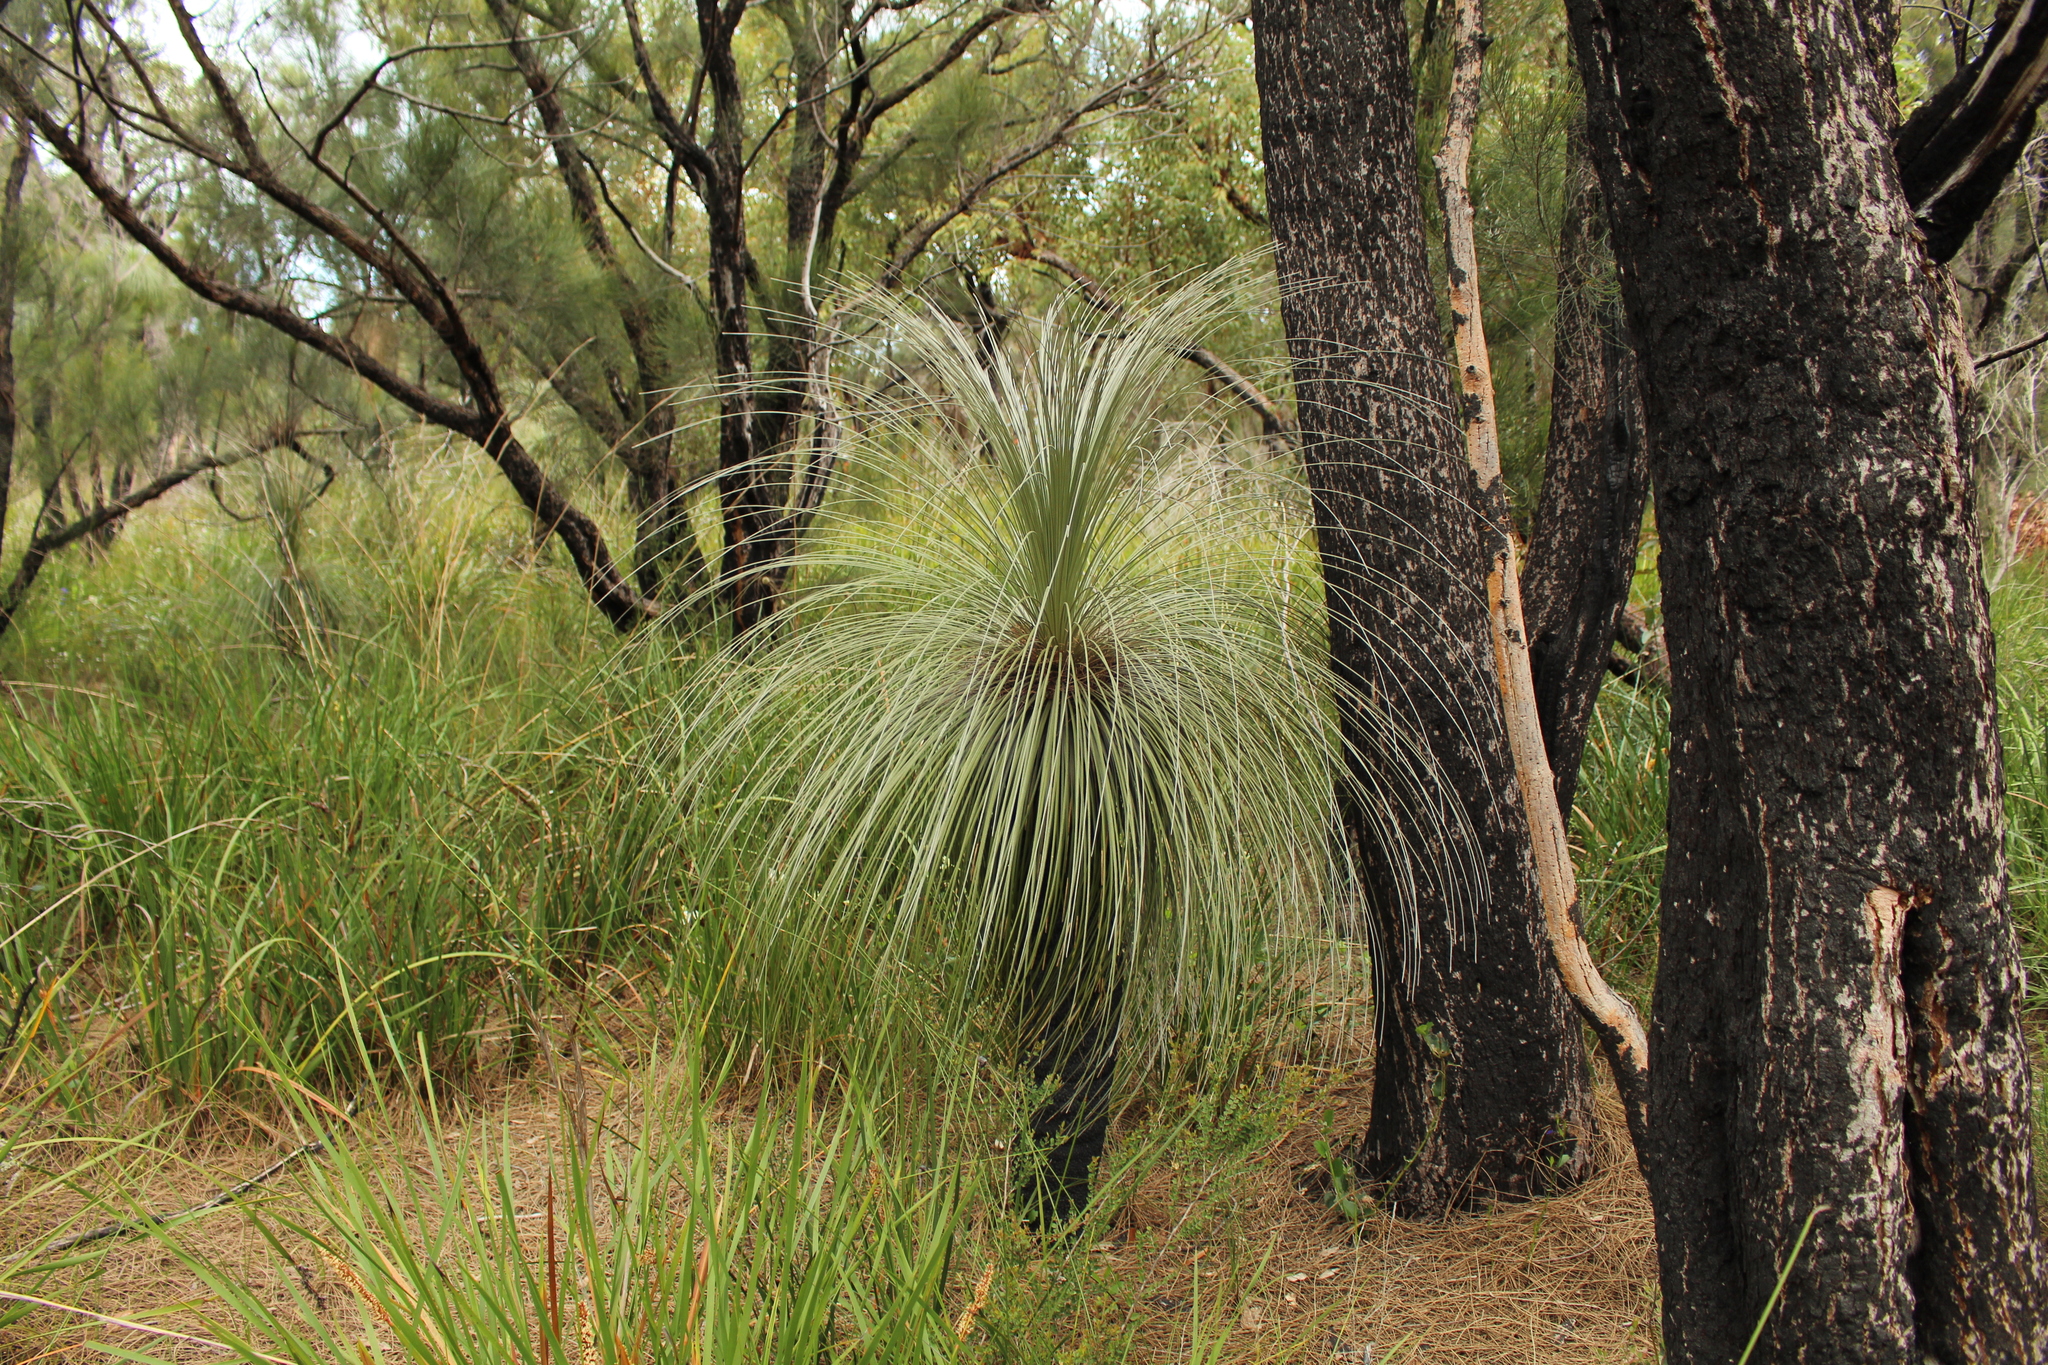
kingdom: Plantae
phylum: Tracheophyta
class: Liliopsida
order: Arecales
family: Dasypogonaceae
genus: Kingia
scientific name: Kingia australis
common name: Black gin
